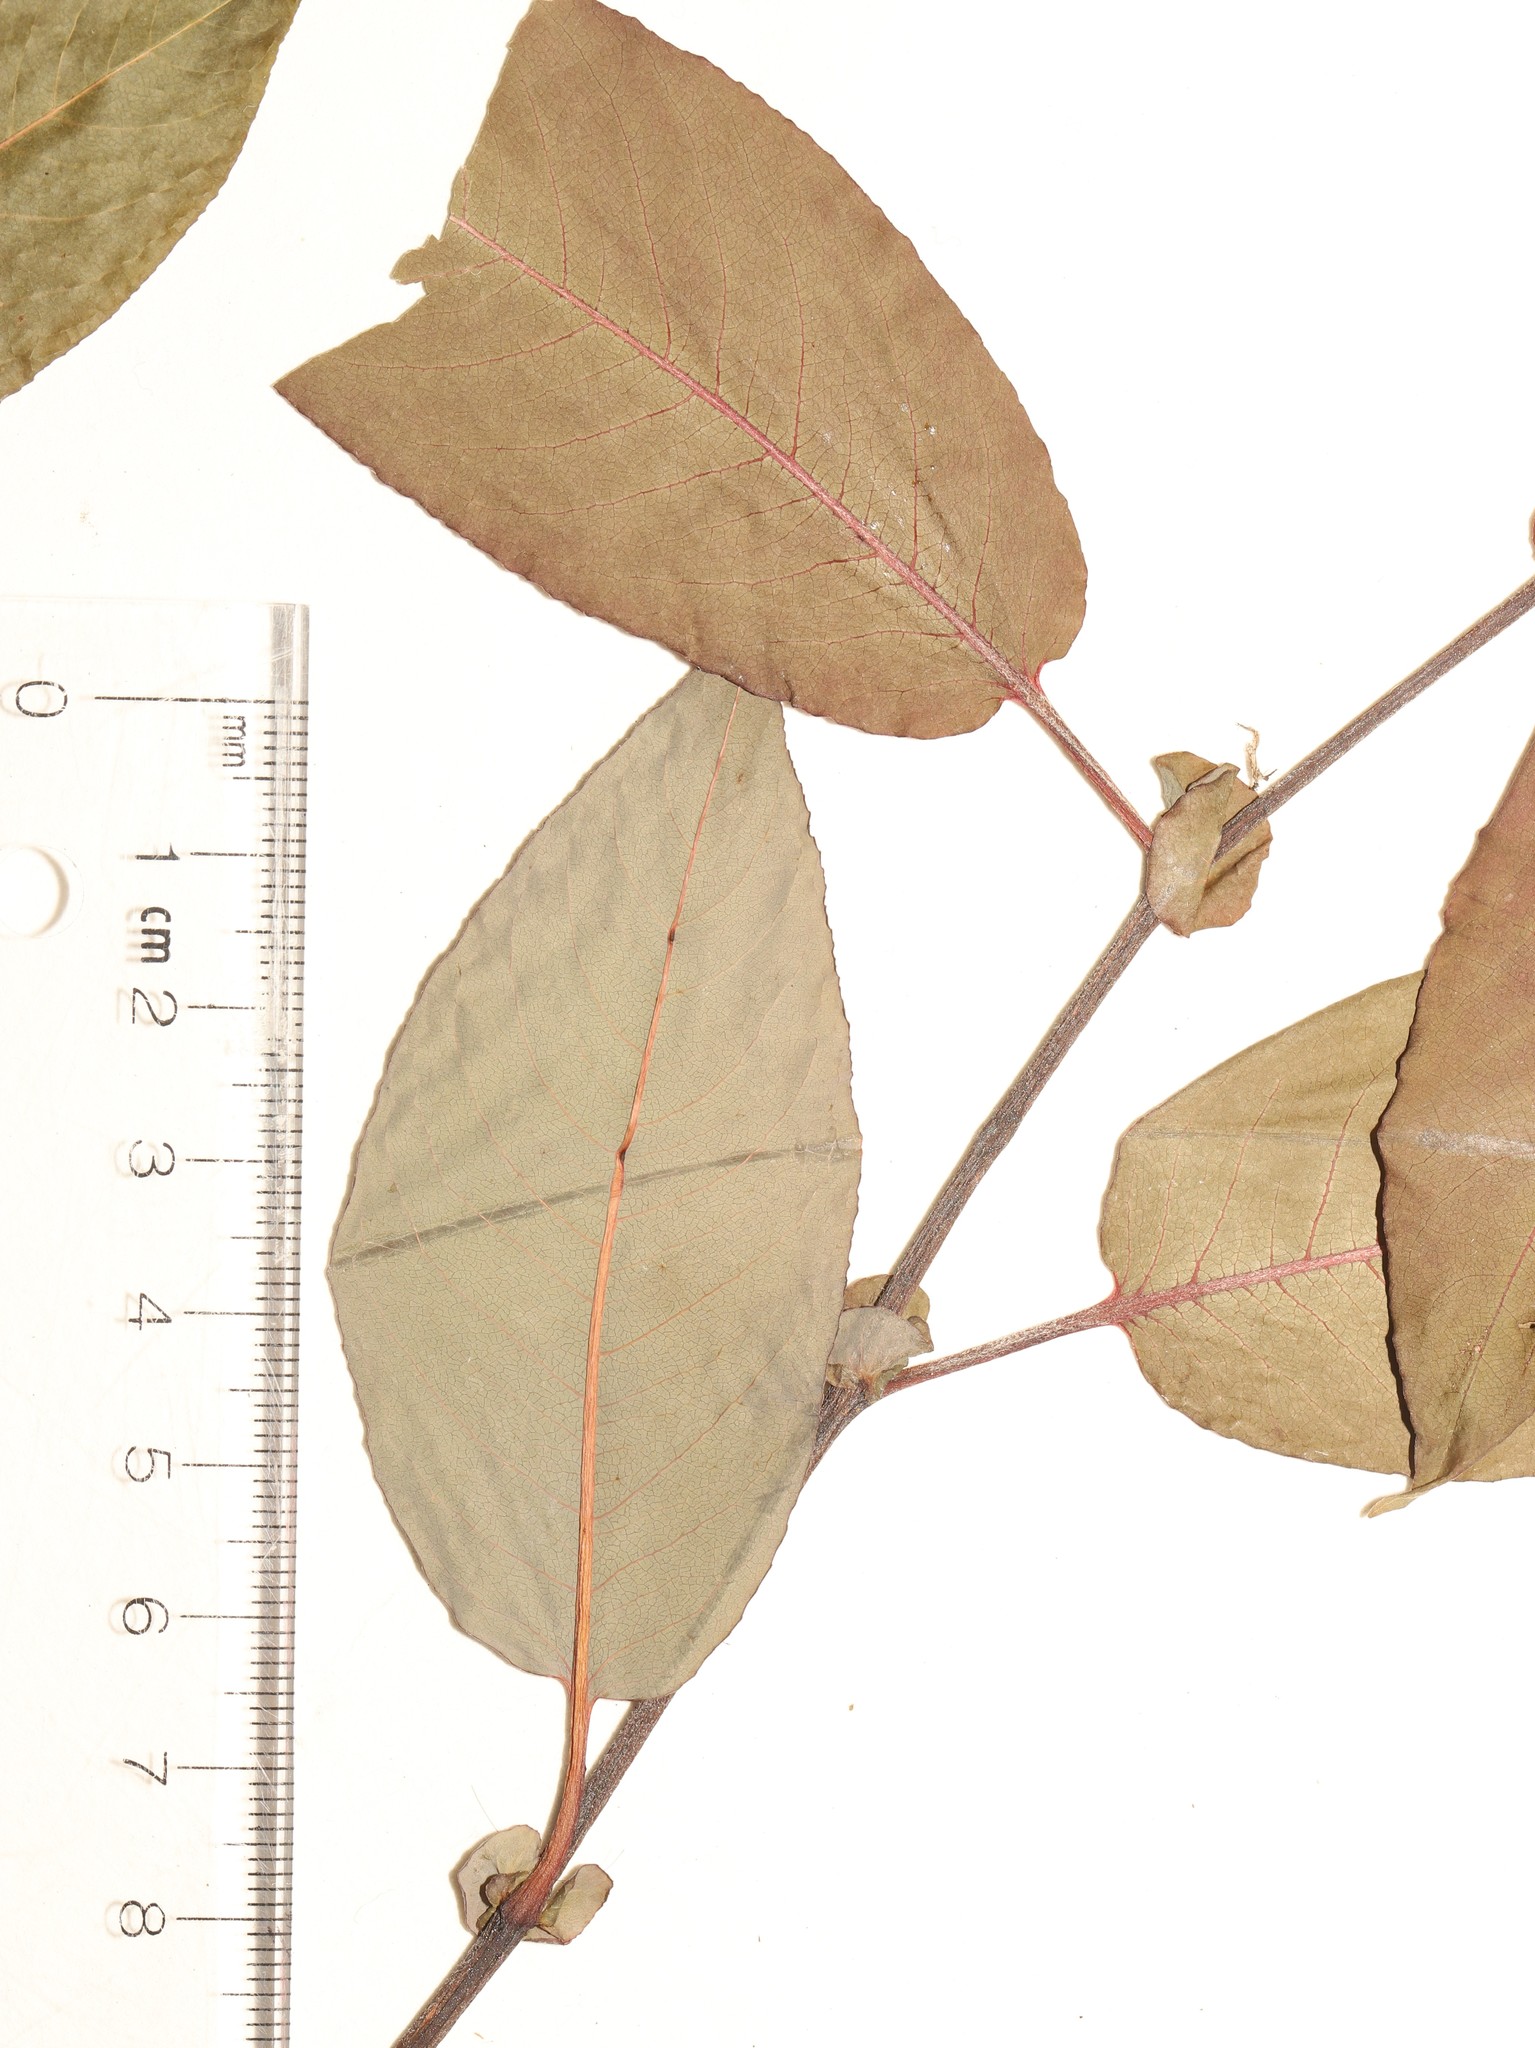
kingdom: Plantae
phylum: Tracheophyta
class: Magnoliopsida
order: Malpighiales
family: Salicaceae
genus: Salix
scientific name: Salix pseudomonticola
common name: Cherry-leaved willow
